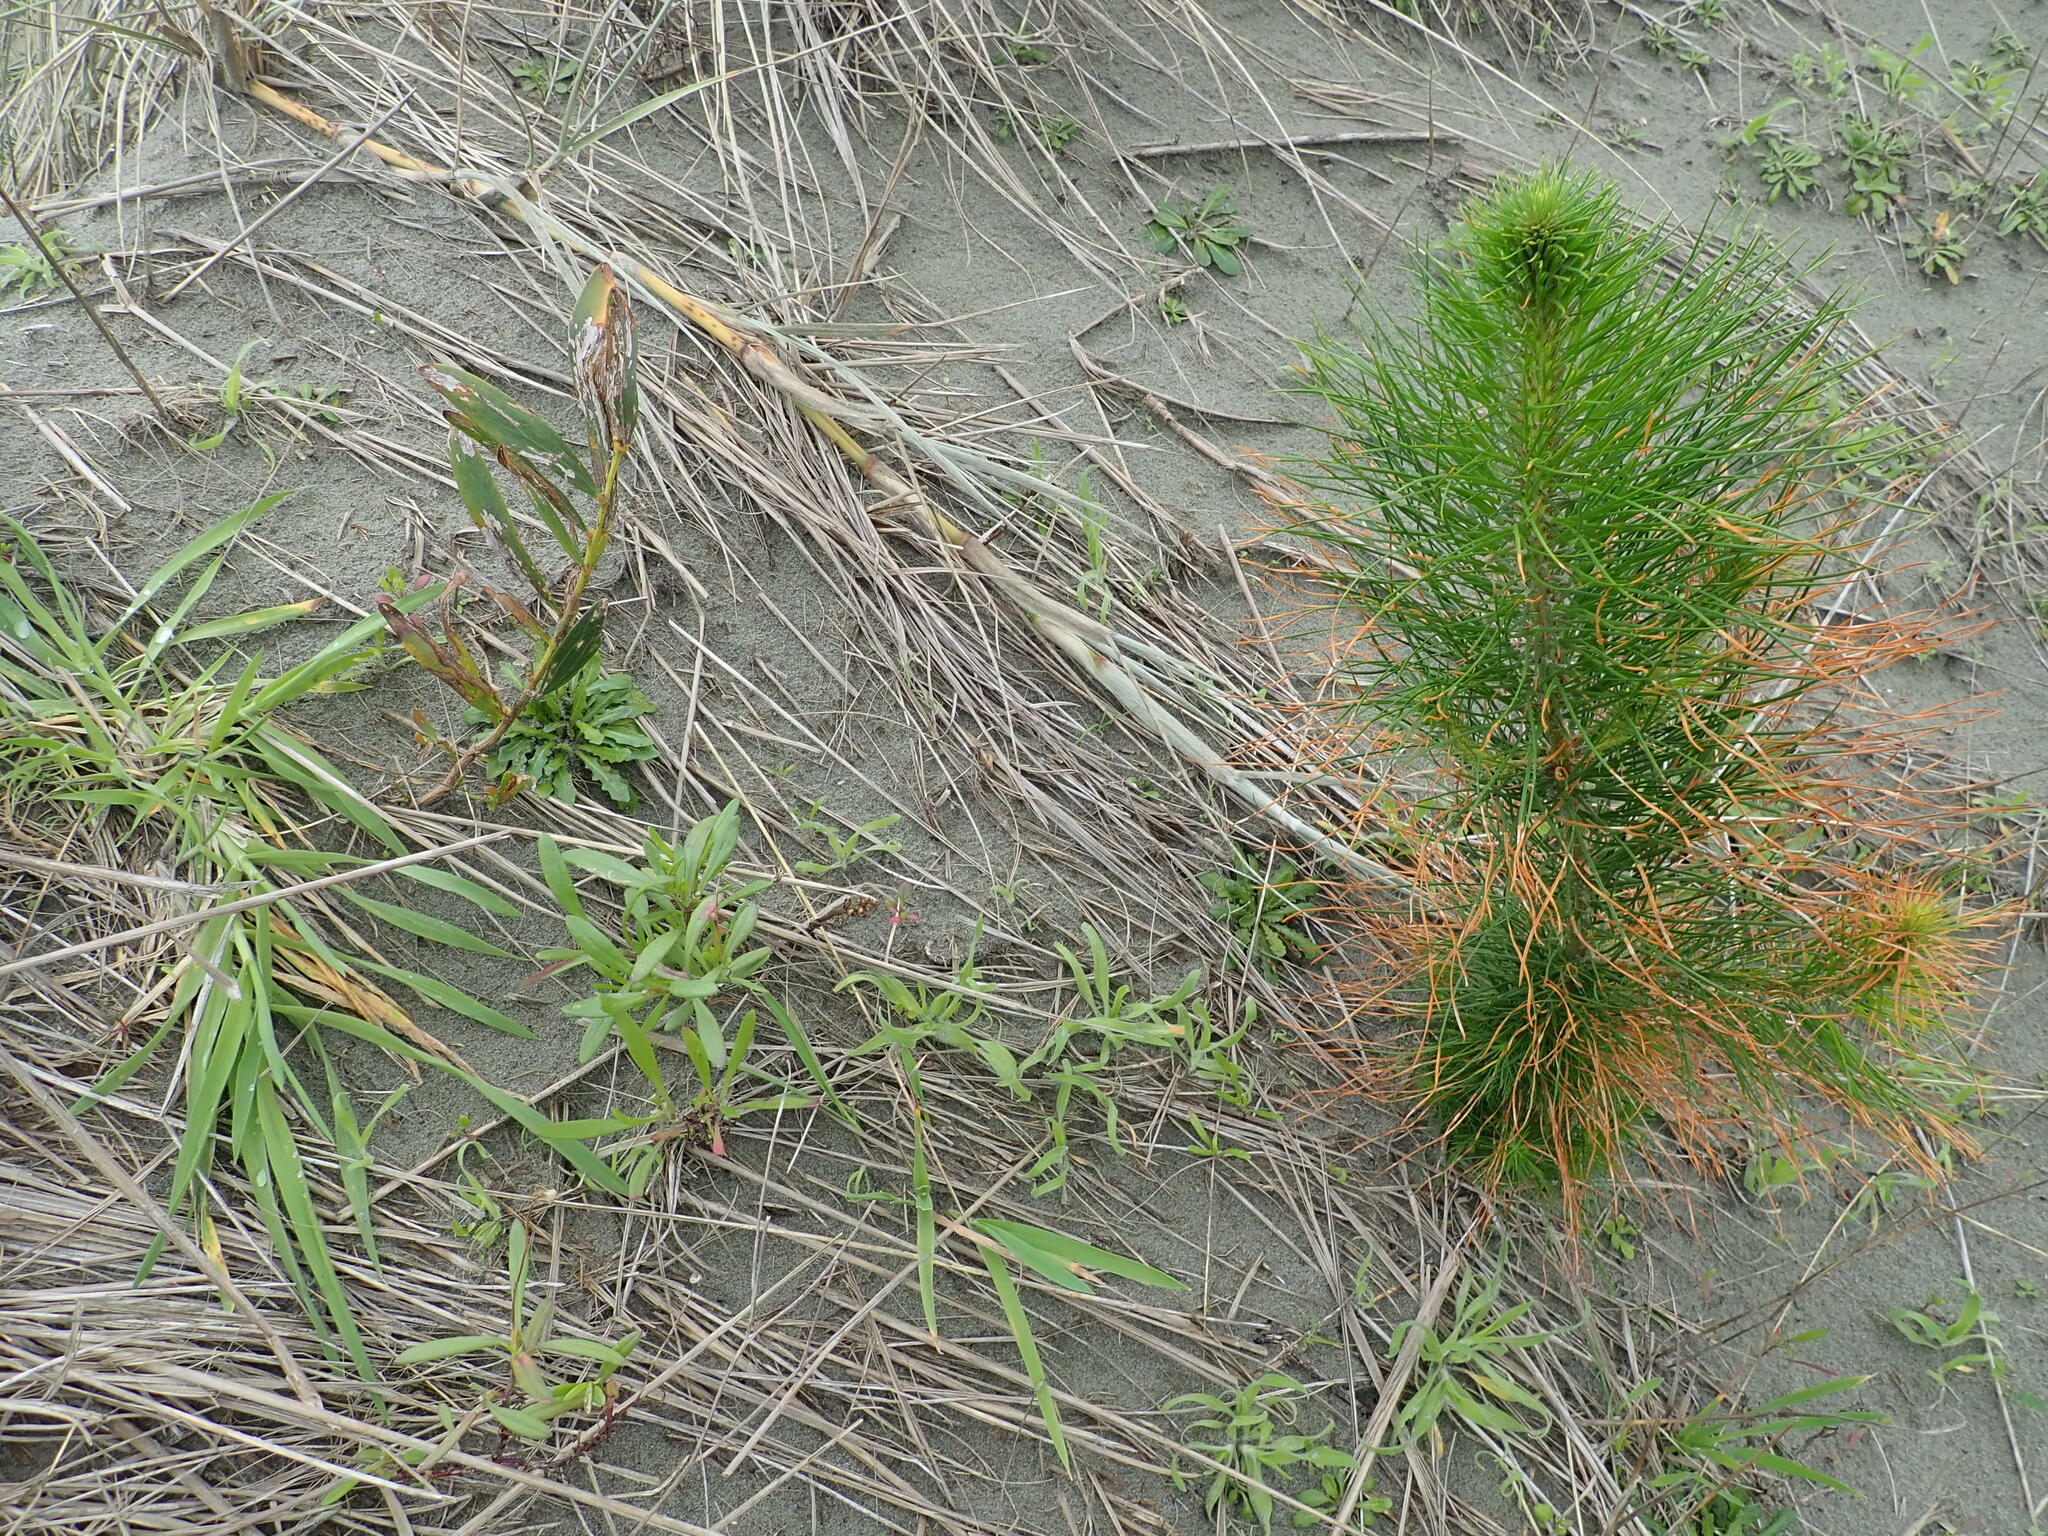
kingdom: Plantae
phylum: Tracheophyta
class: Pinopsida
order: Pinales
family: Pinaceae
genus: Pinus
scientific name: Pinus radiata
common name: Monterey pine
